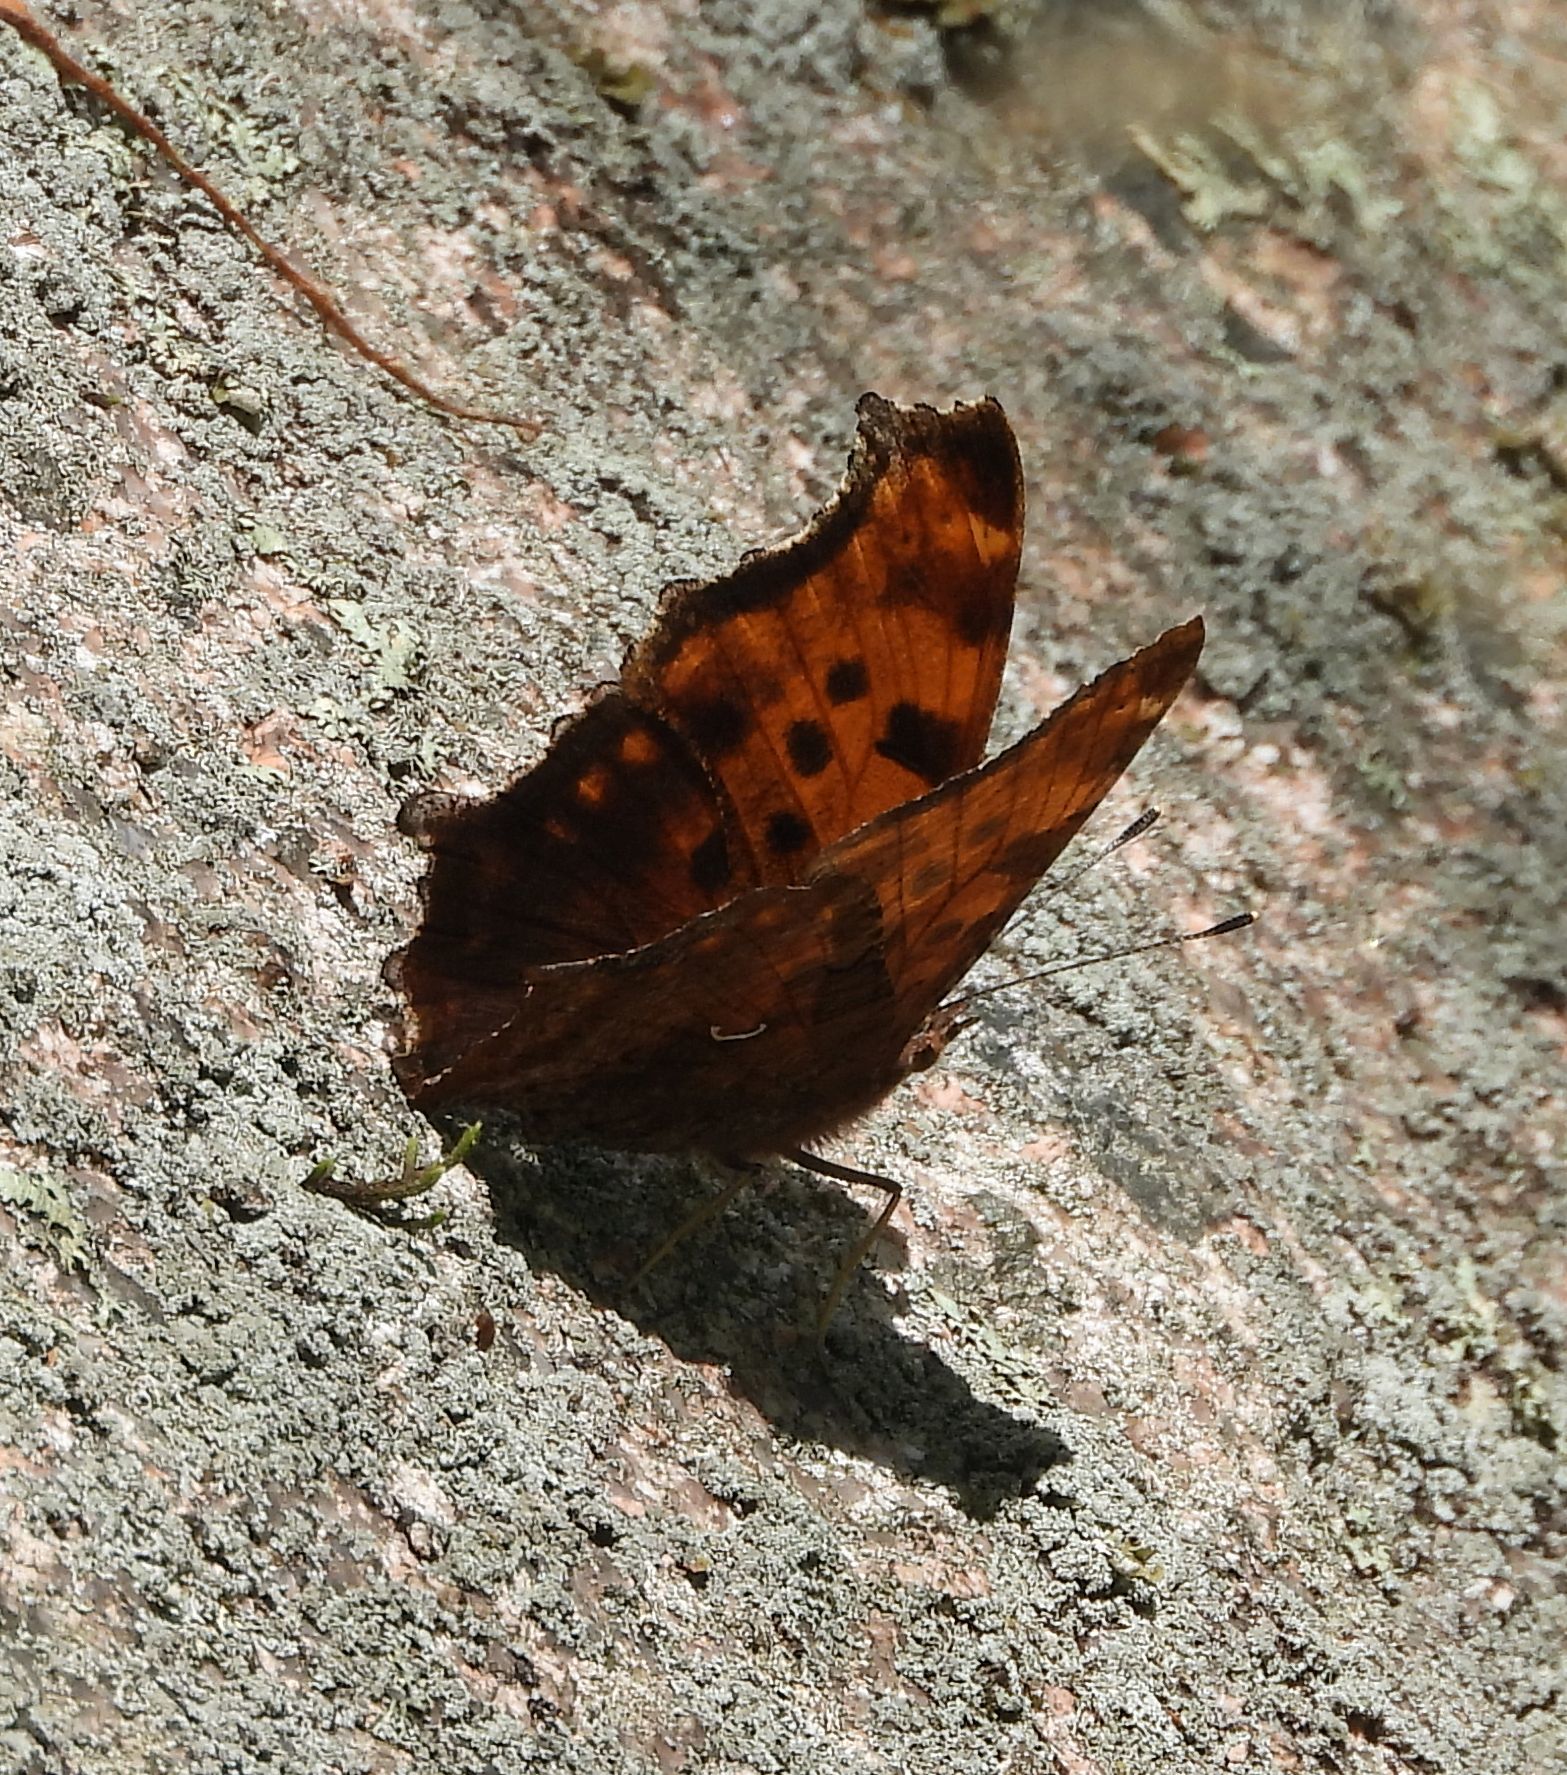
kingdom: Animalia
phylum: Arthropoda
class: Insecta
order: Lepidoptera
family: Nymphalidae
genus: Polygonia
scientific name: Polygonia comma
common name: Eastern comma
